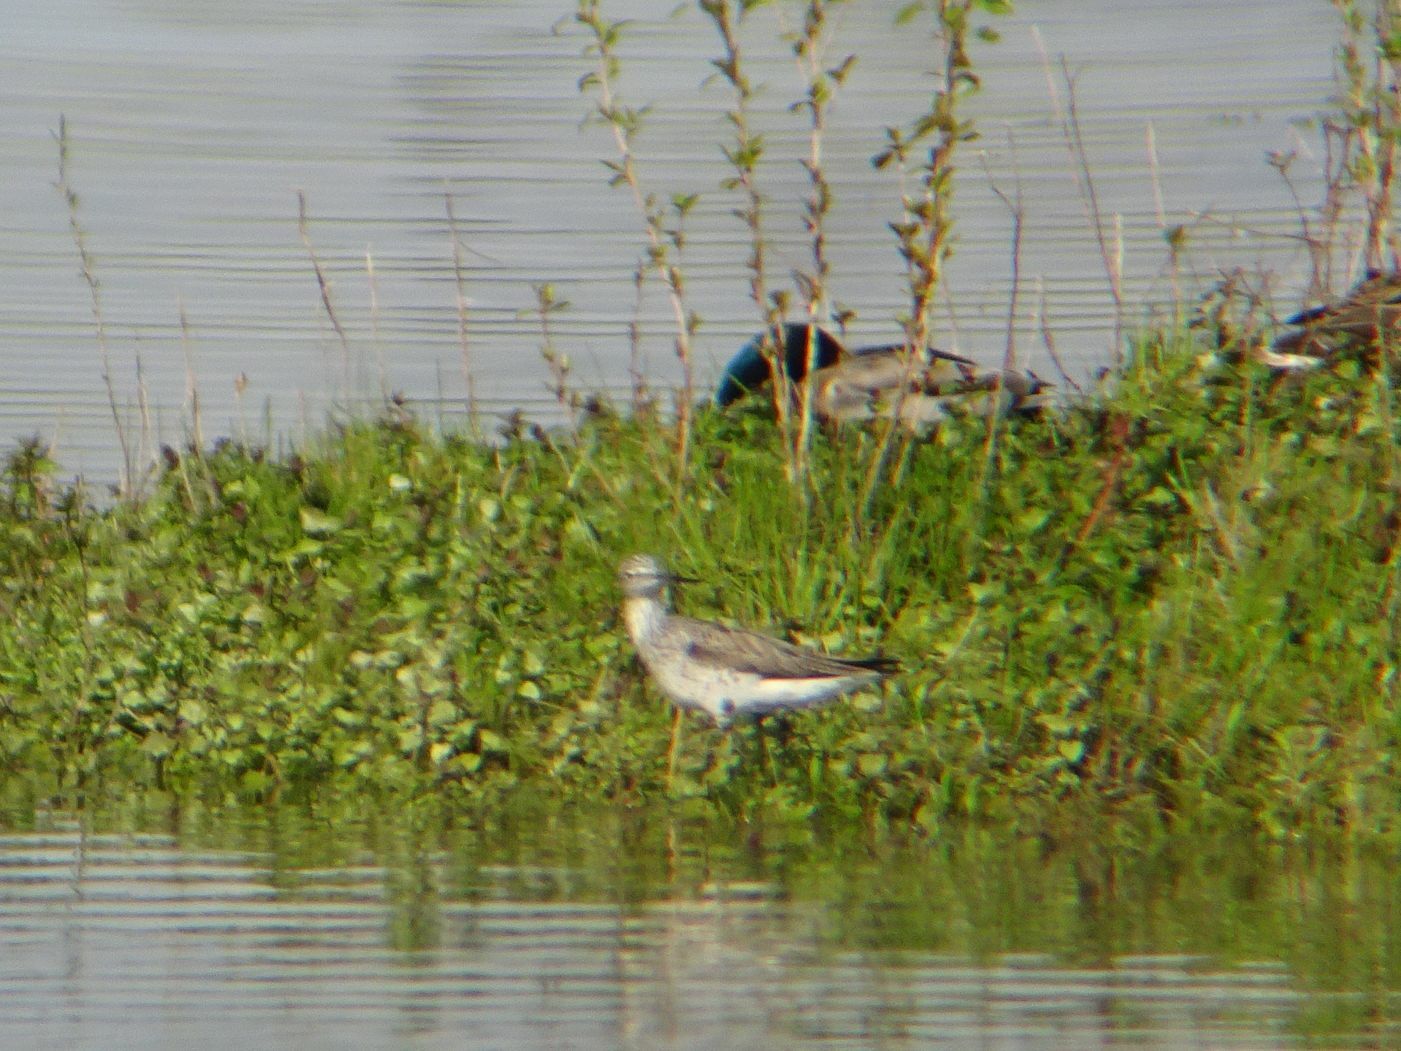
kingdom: Animalia
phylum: Chordata
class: Aves
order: Charadriiformes
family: Scolopacidae
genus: Tringa
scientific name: Tringa nebularia
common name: Common greenshank
